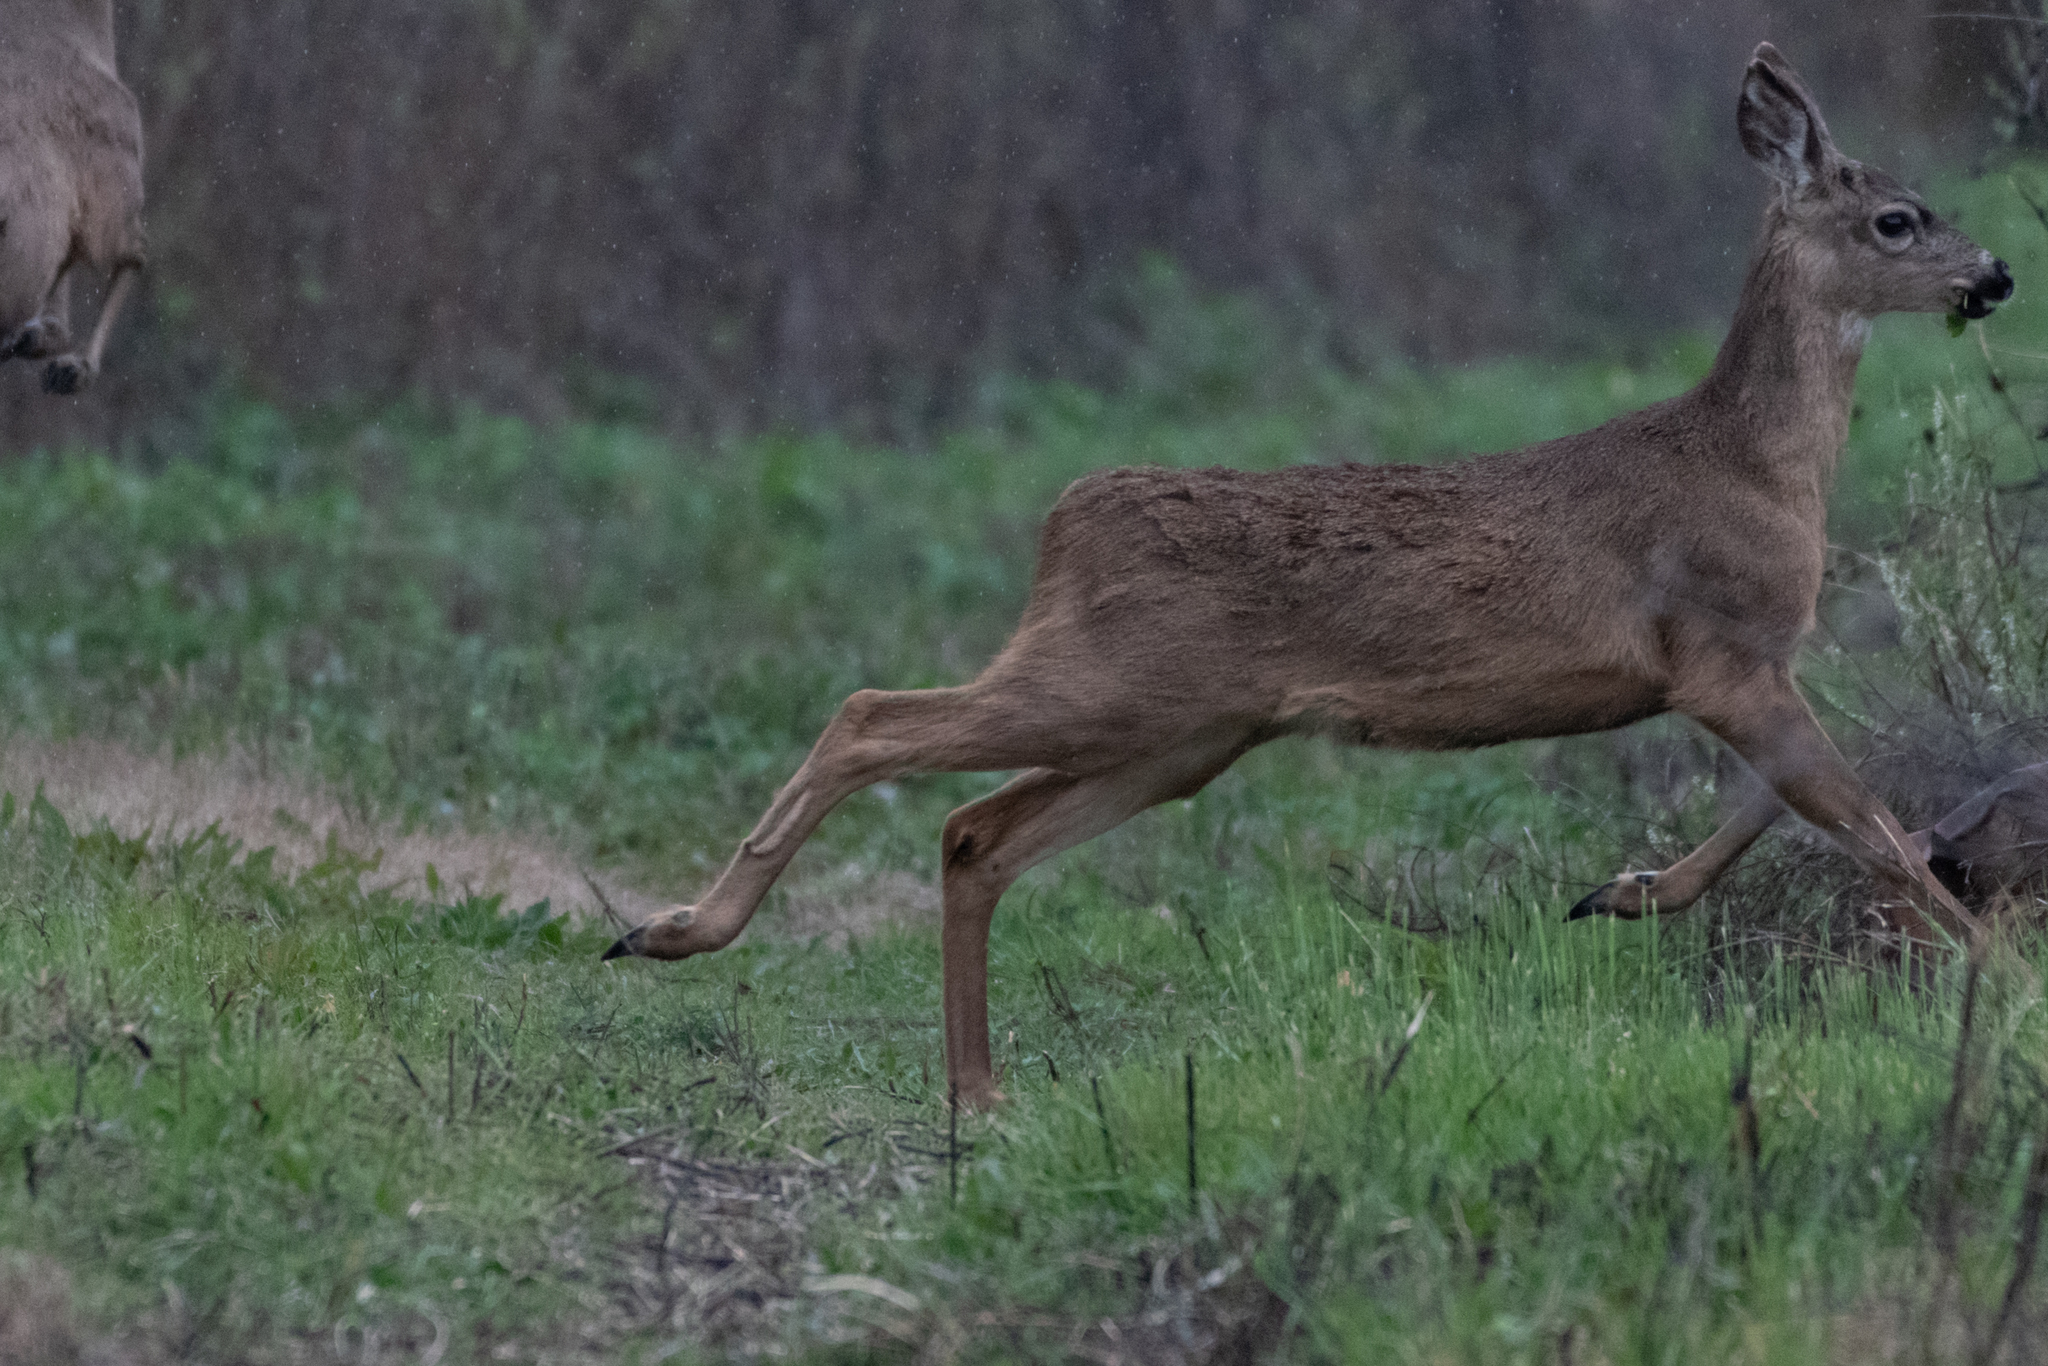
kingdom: Animalia
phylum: Chordata
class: Mammalia
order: Artiodactyla
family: Cervidae
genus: Odocoileus
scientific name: Odocoileus hemionus
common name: Mule deer
